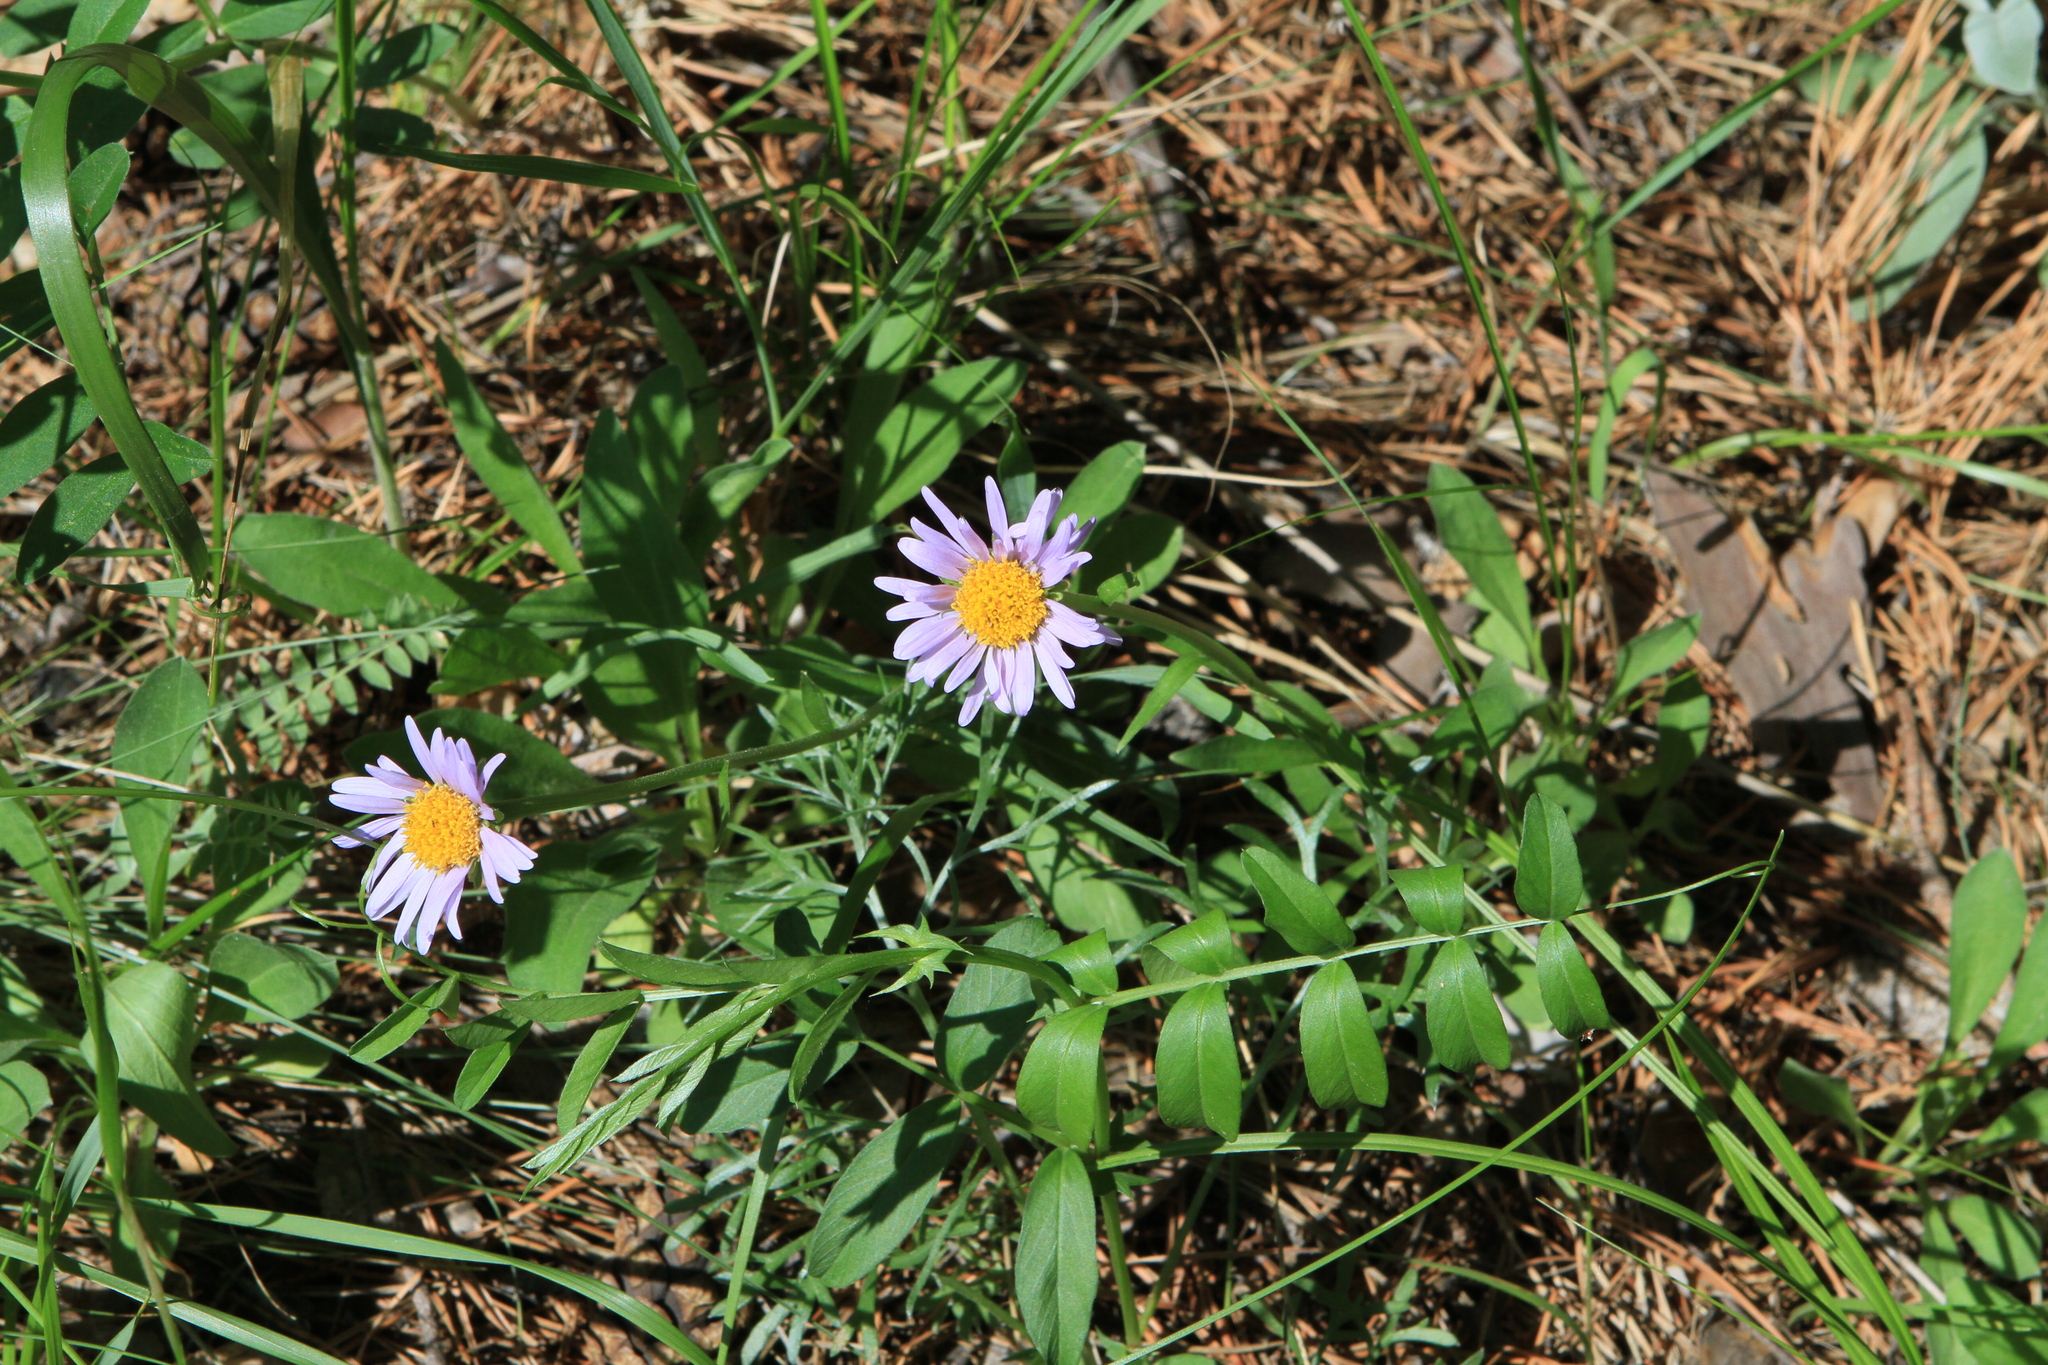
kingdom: Plantae
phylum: Tracheophyta
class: Magnoliopsida
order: Asterales
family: Asteraceae
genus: Aster
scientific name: Aster alpinus
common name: Alpine aster
